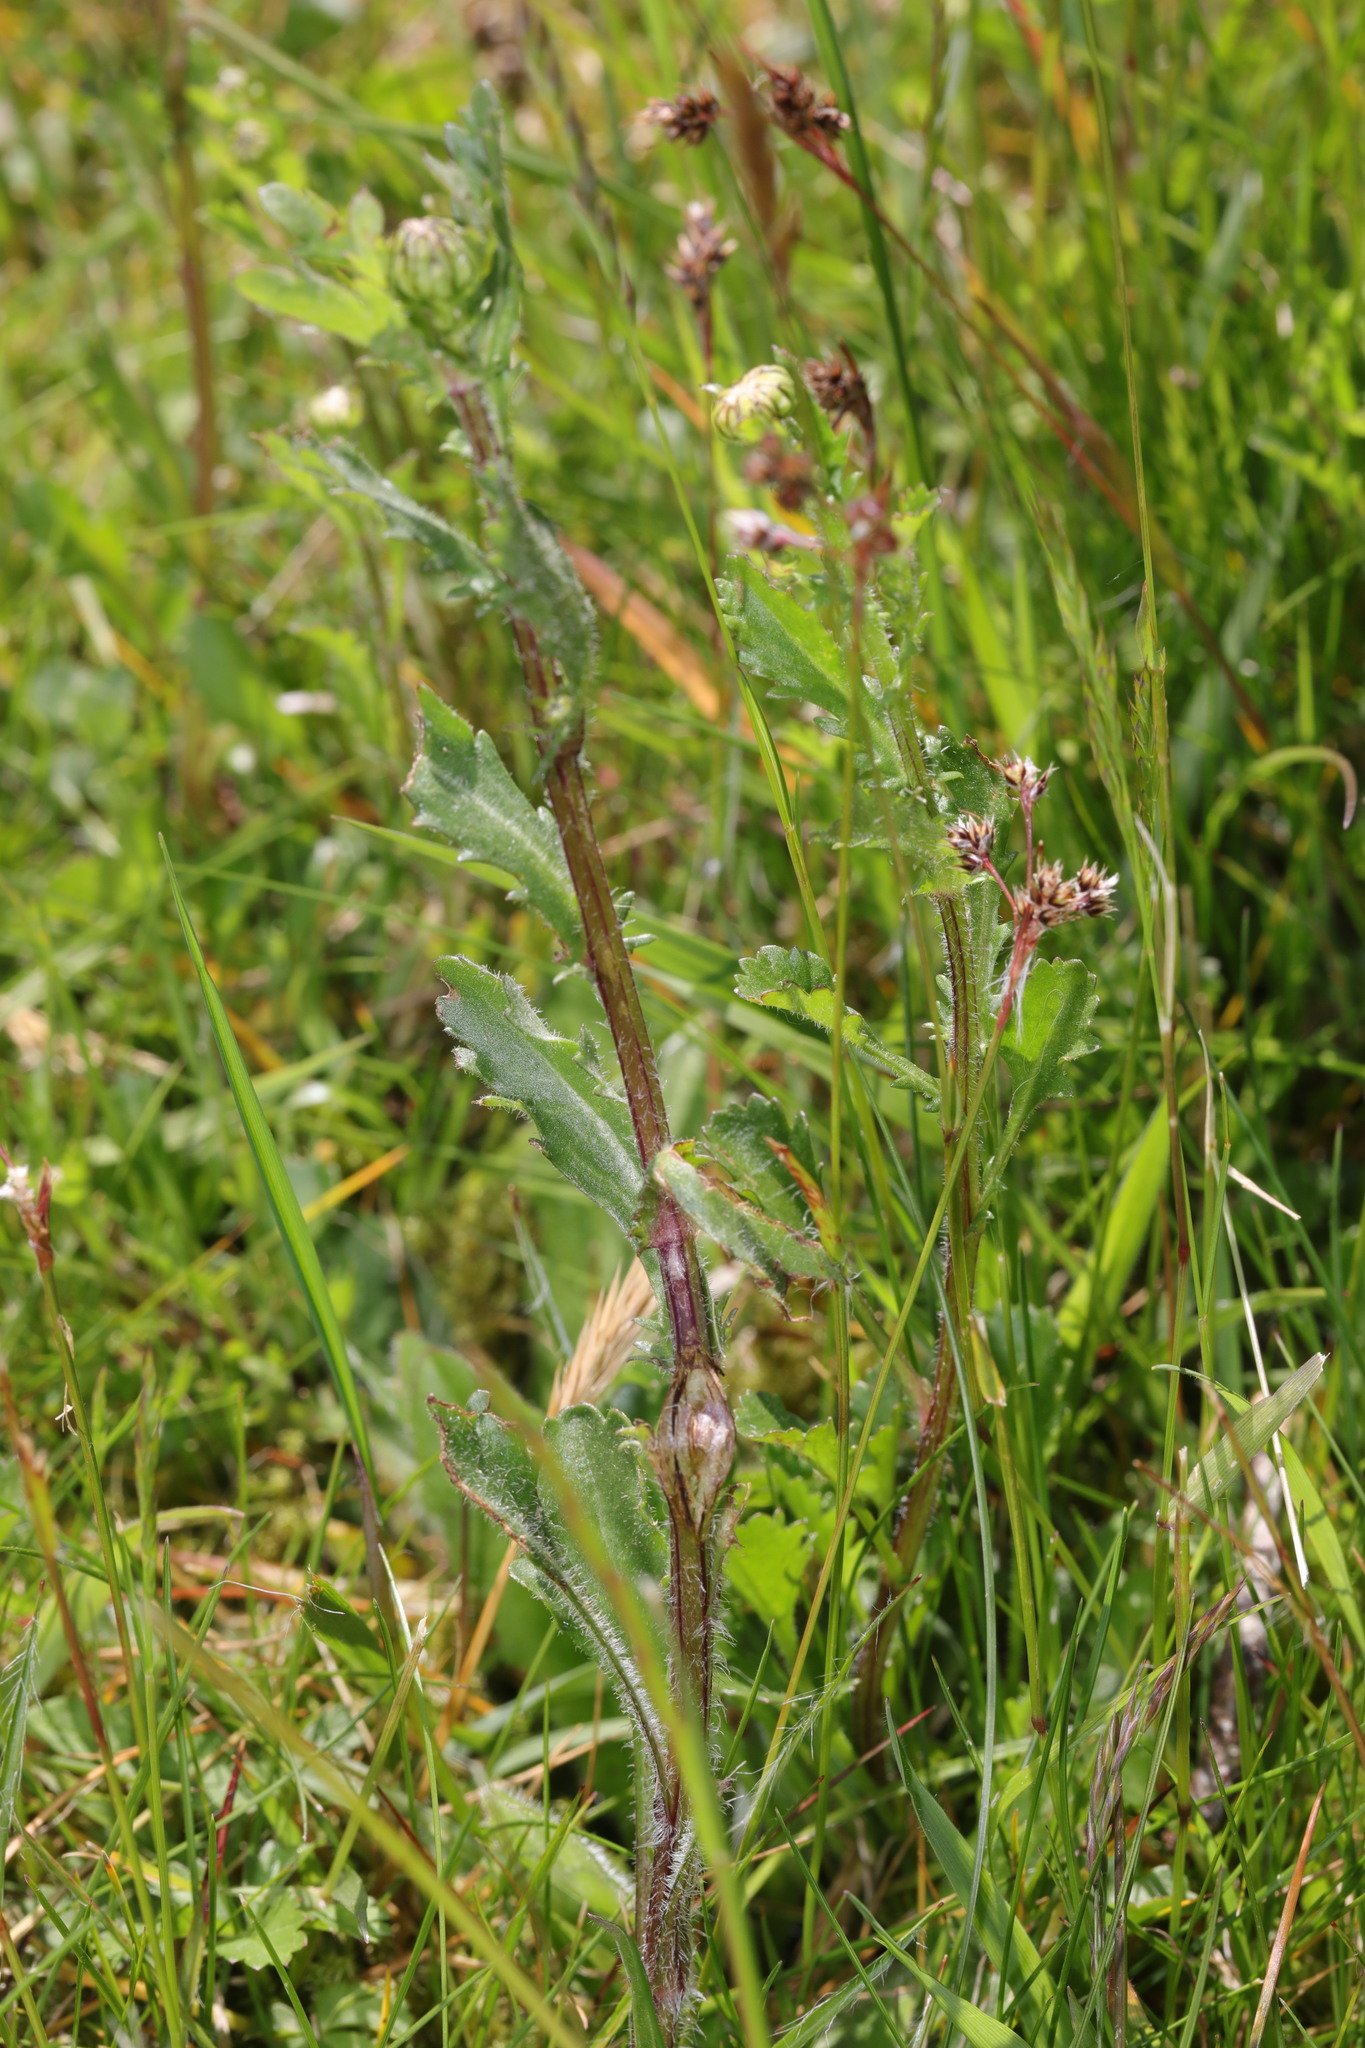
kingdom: Plantae
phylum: Tracheophyta
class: Magnoliopsida
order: Asterales
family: Asteraceae
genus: Leucanthemum
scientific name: Leucanthemum vulgare
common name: Oxeye daisy
